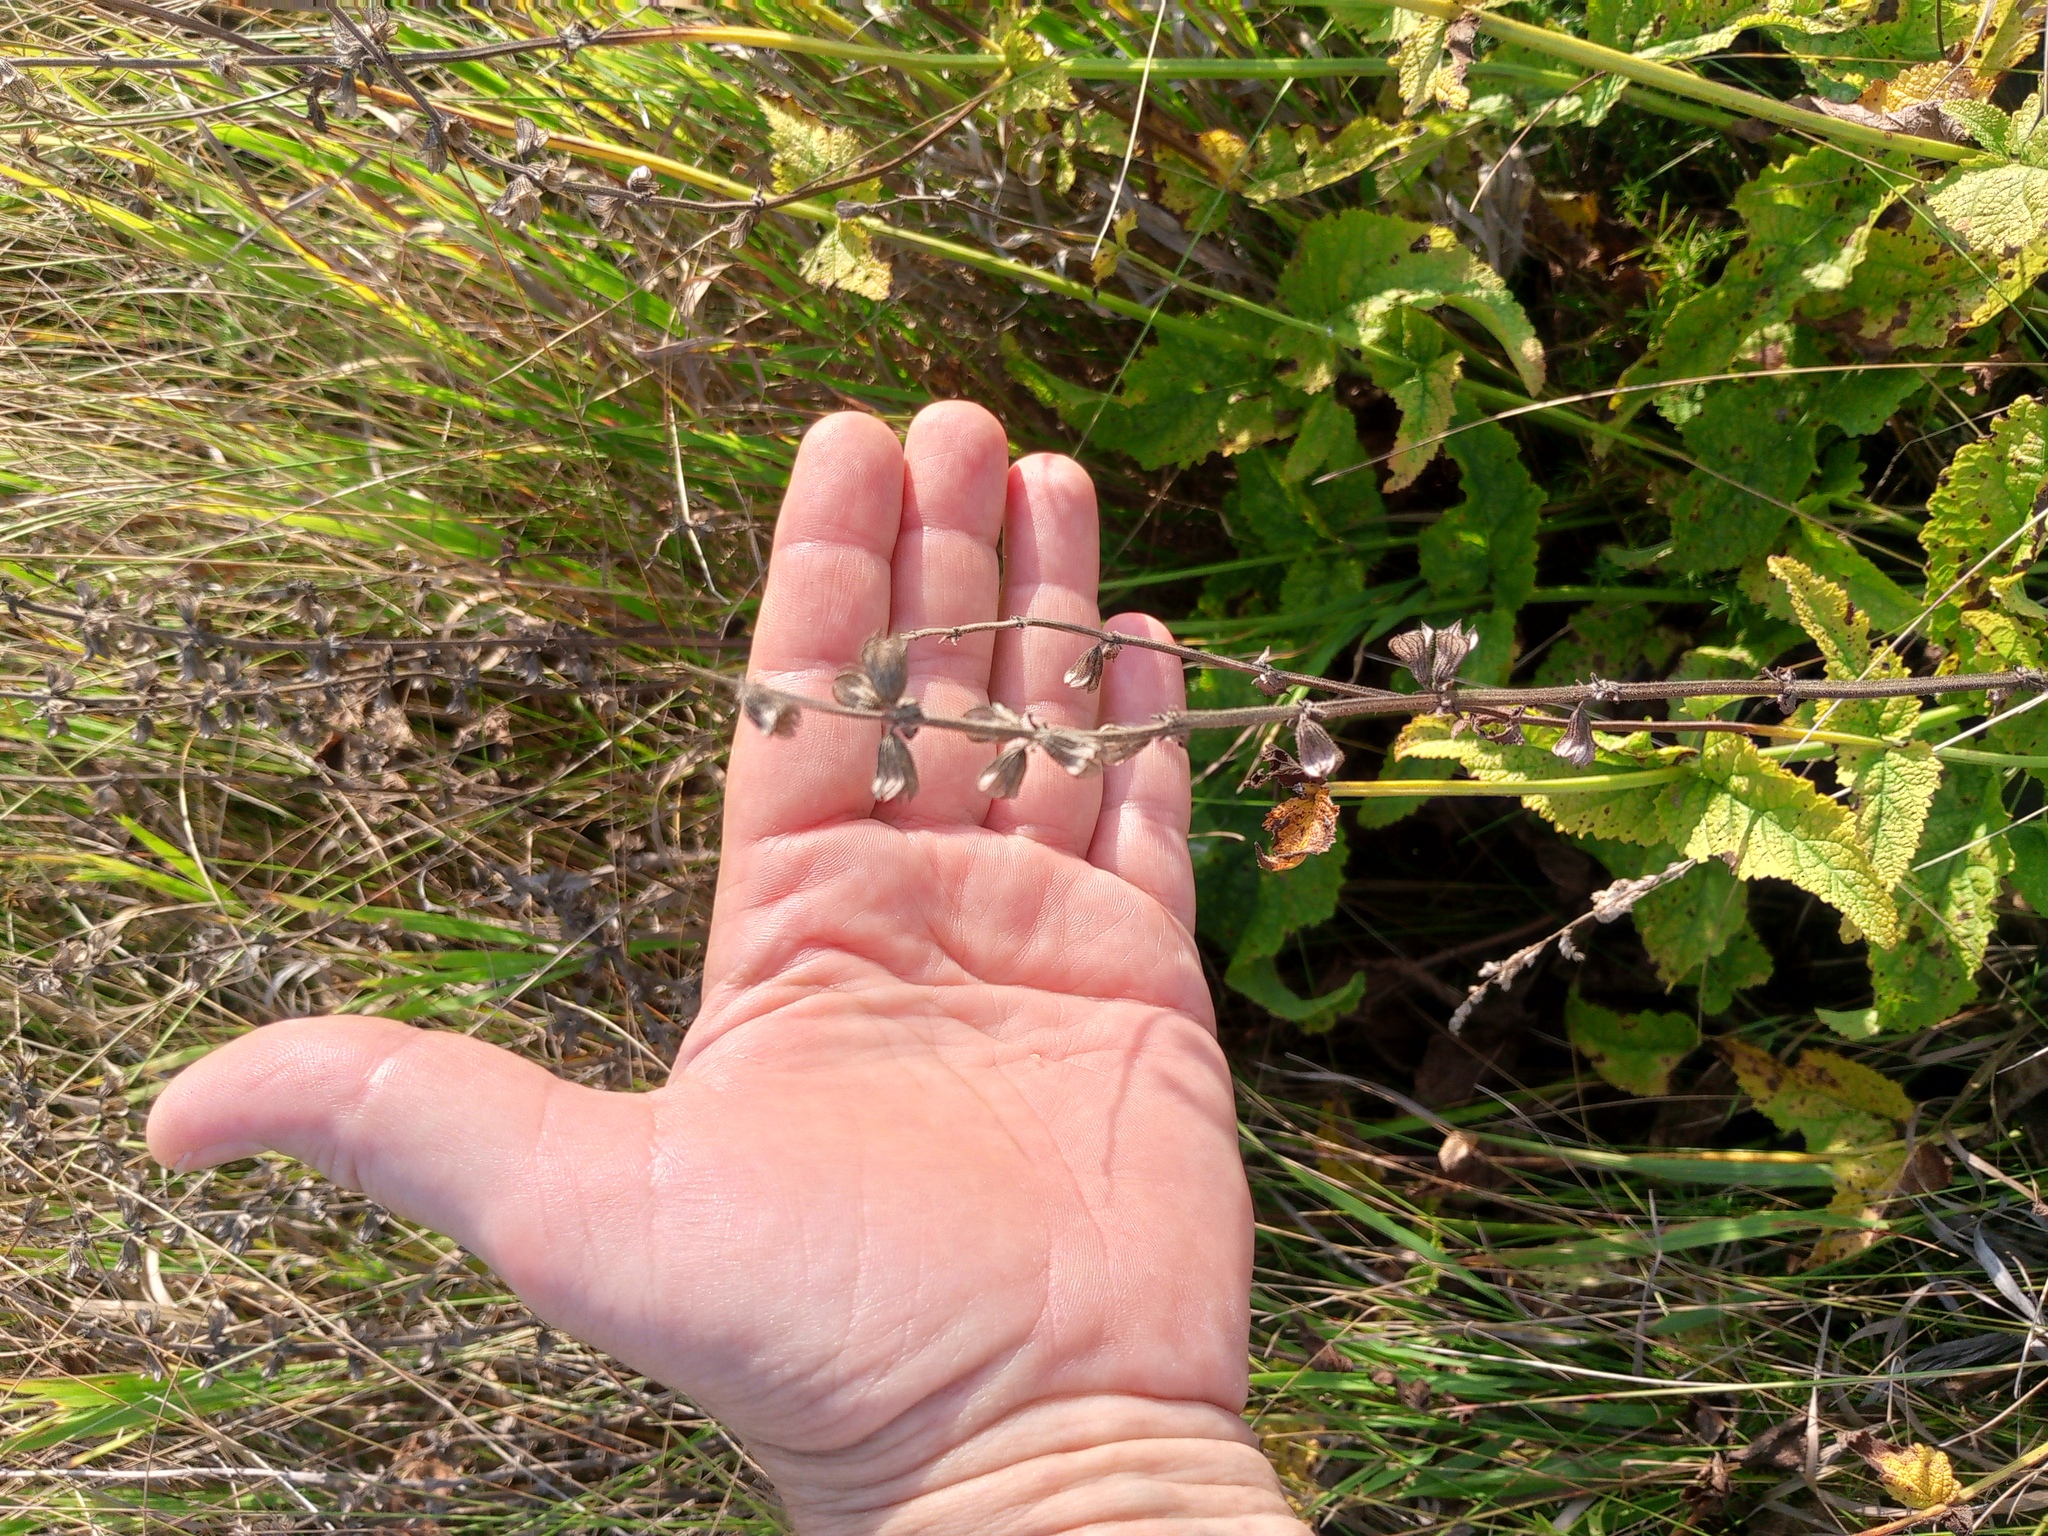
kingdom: Plantae
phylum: Tracheophyta
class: Magnoliopsida
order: Lamiales
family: Lamiaceae
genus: Salvia
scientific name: Salvia dumetorum
